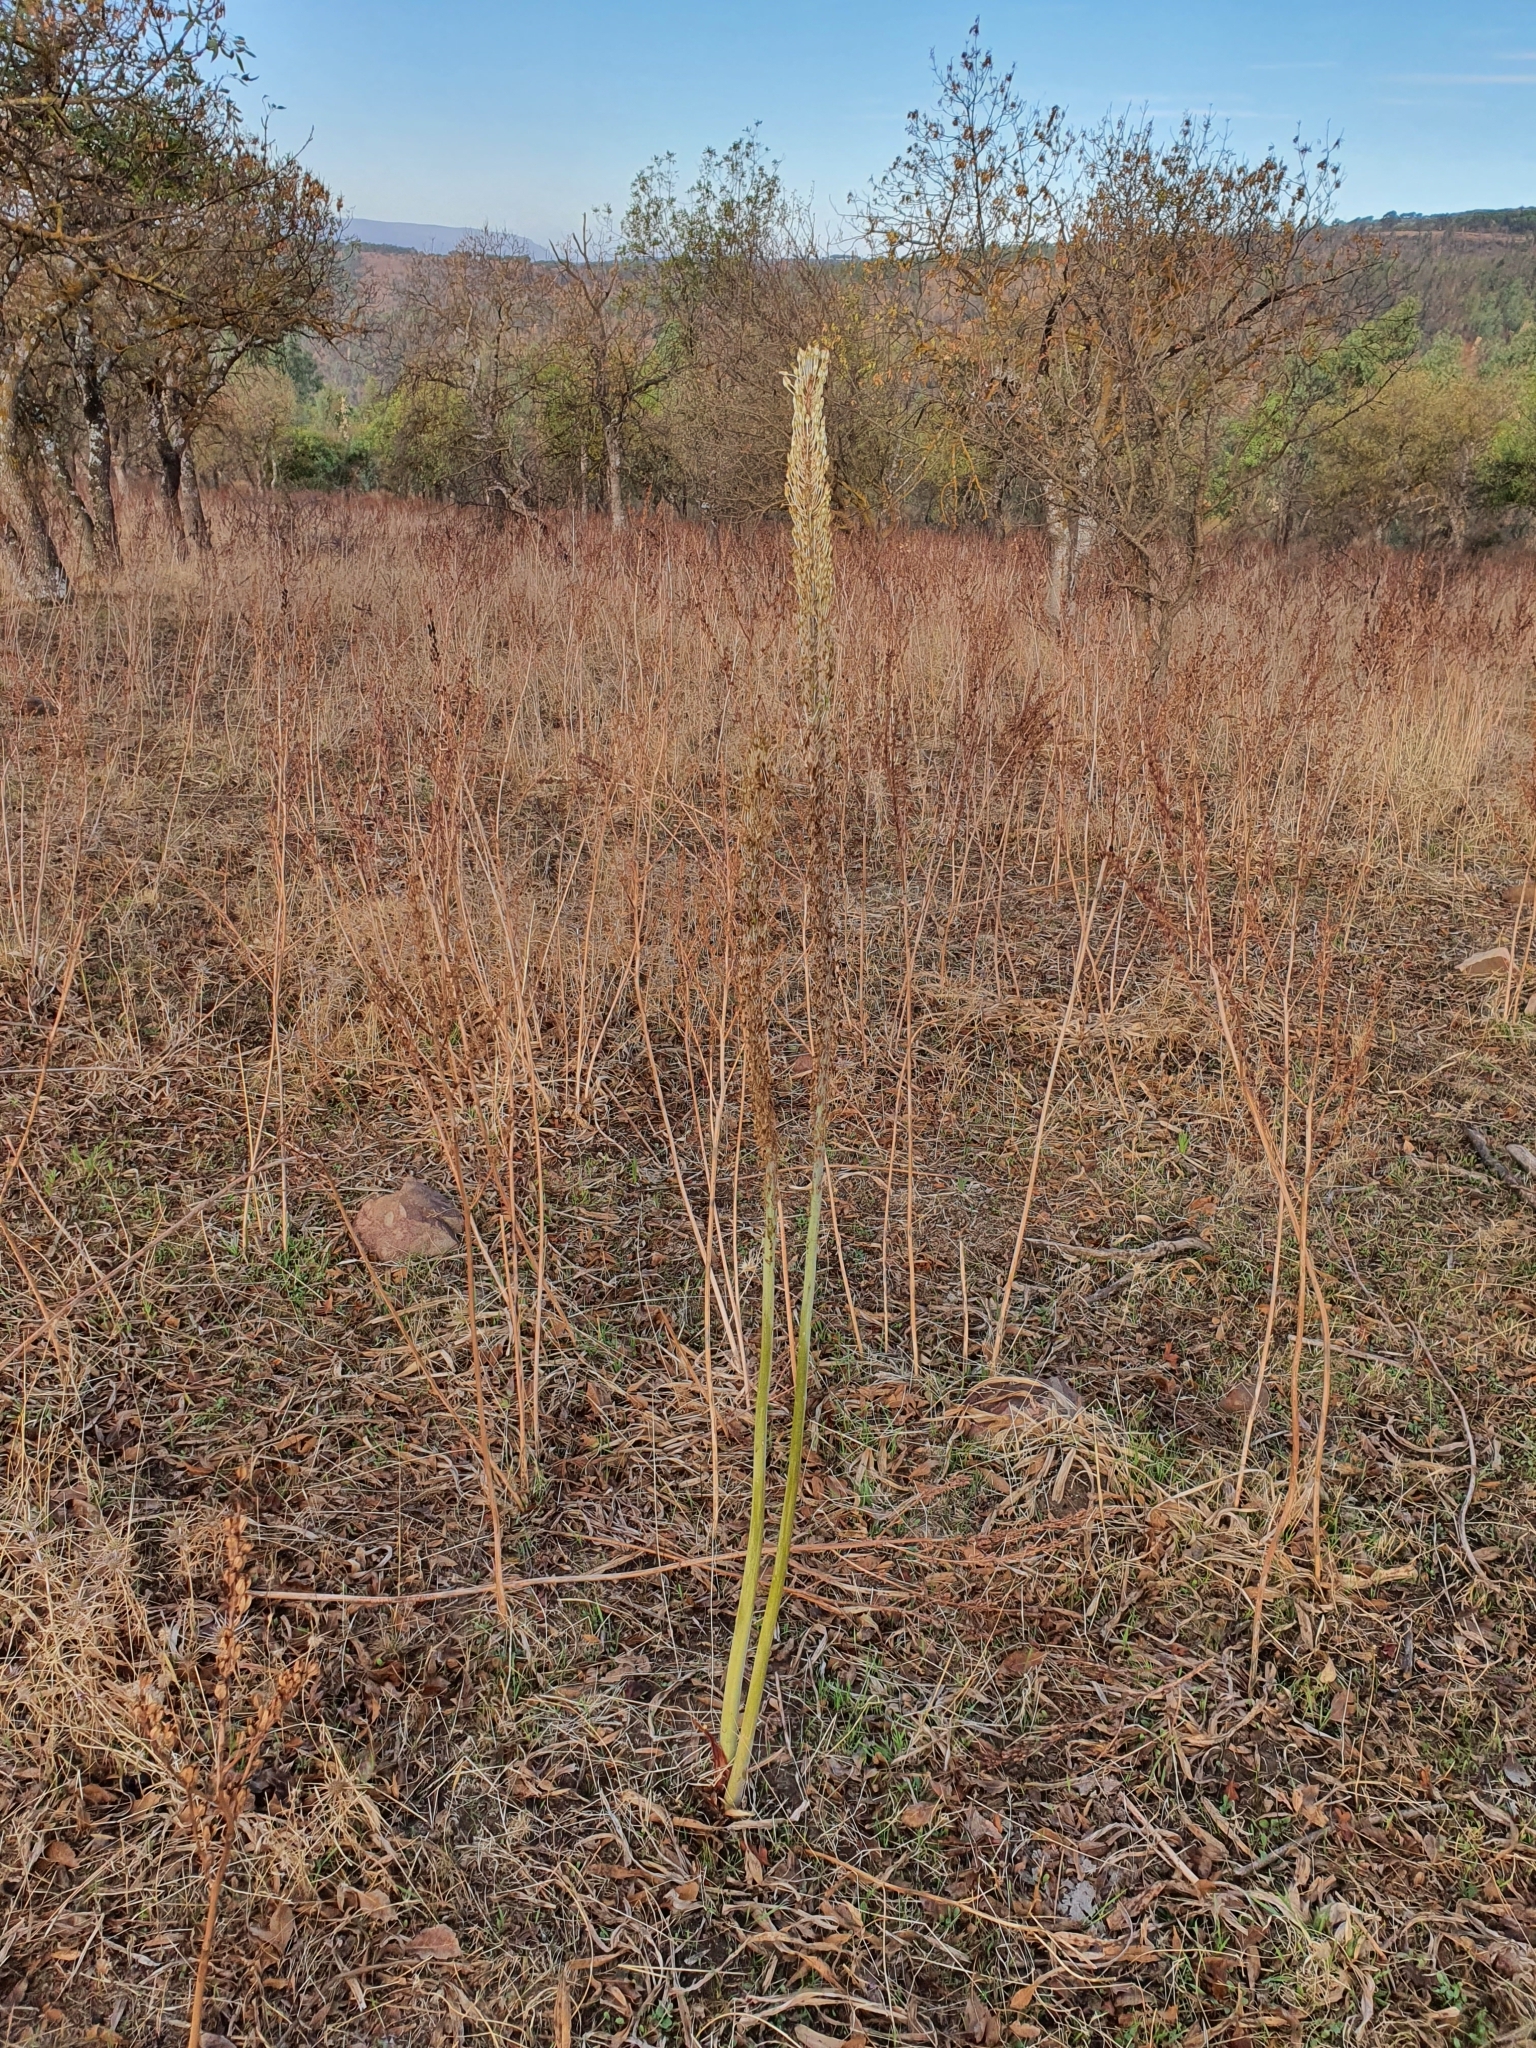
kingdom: Plantae
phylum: Tracheophyta
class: Liliopsida
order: Asparagales
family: Asparagaceae
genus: Drimia
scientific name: Drimia numidica
